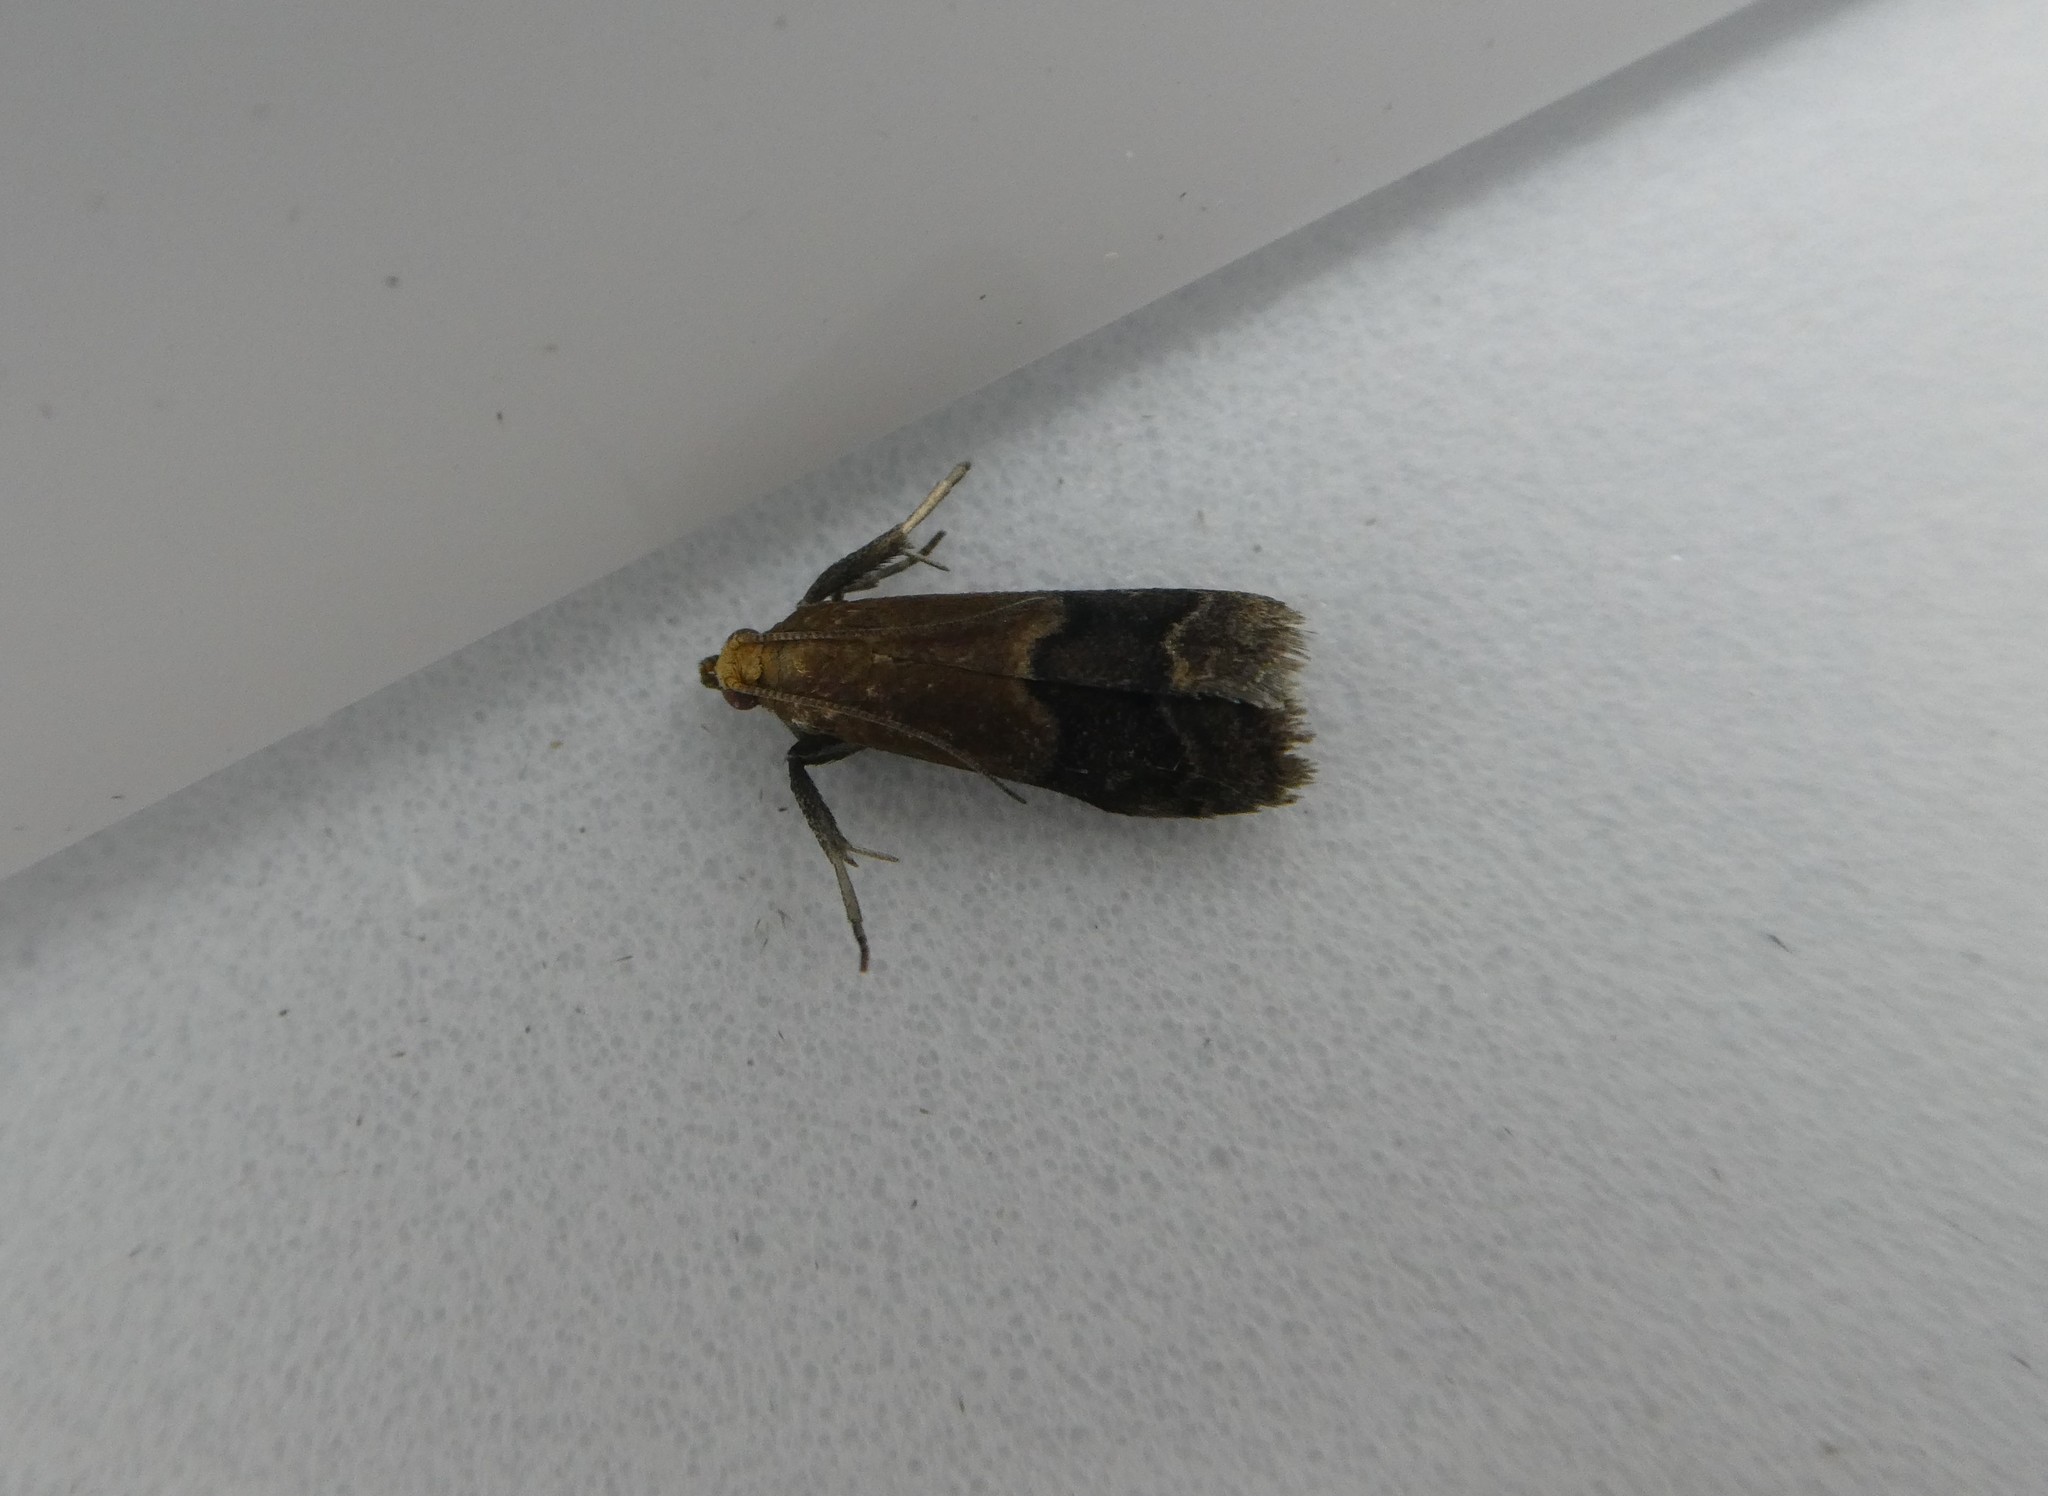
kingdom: Animalia
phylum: Arthropoda
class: Insecta
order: Lepidoptera
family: Pyralidae
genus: Eulogia
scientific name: Eulogia ochrifrontella
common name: Broad-banded eulogia moth
